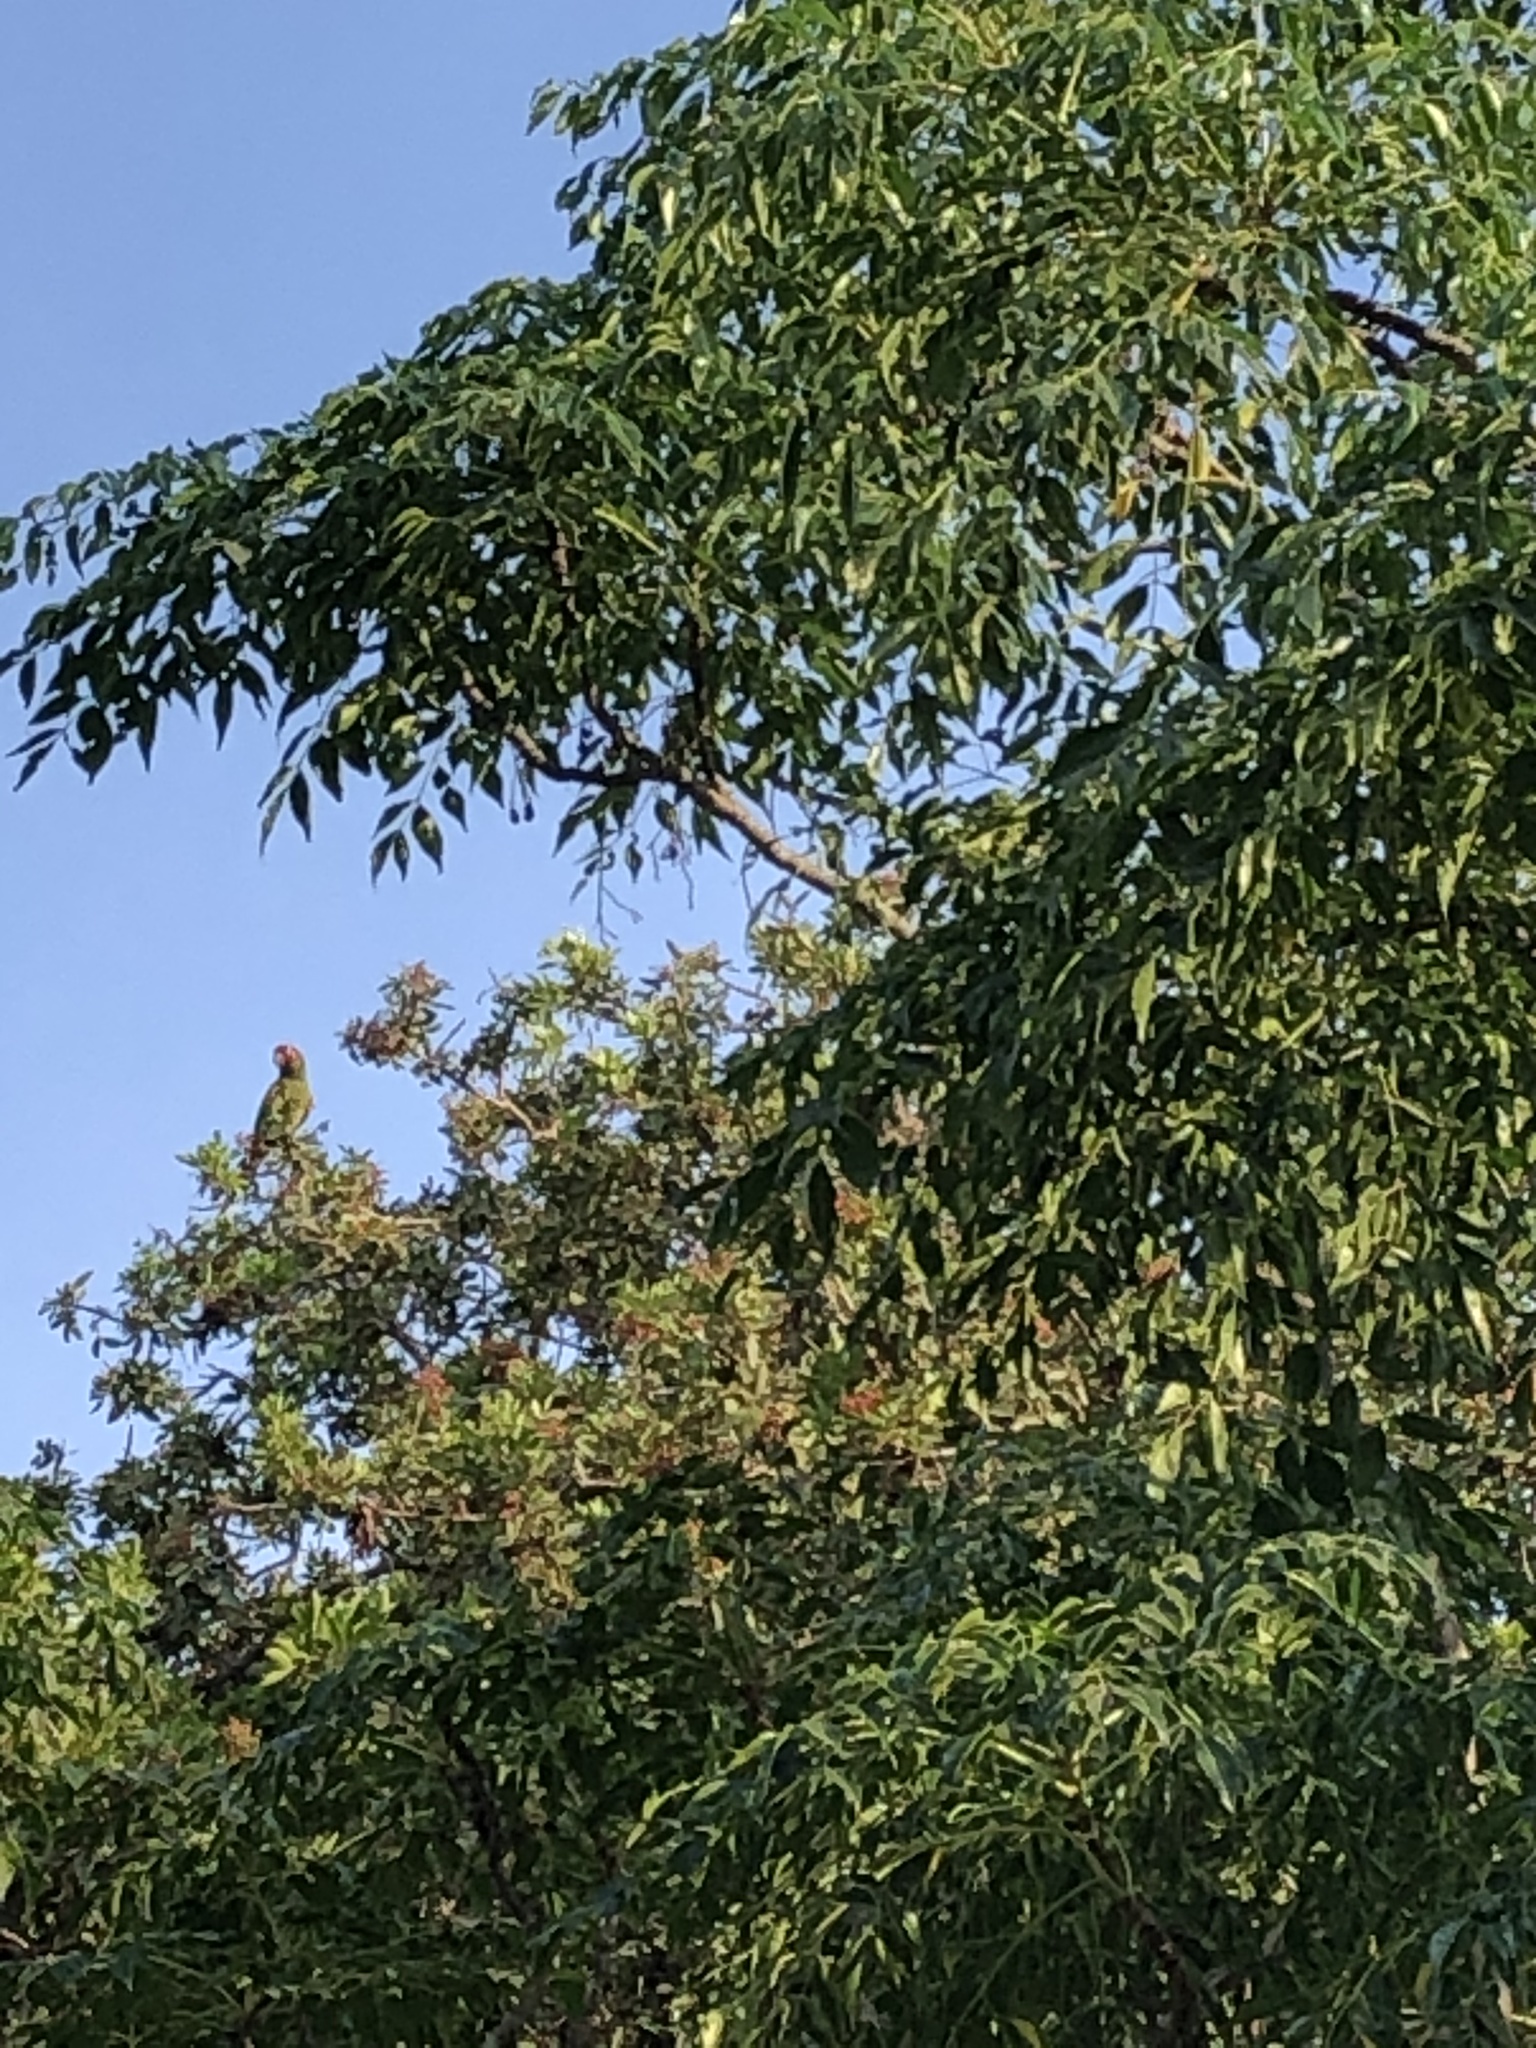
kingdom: Animalia
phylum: Chordata
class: Aves
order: Psittaciformes
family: Psittacidae
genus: Aratinga
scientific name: Aratinga mitrata
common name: Mitred parakeet
